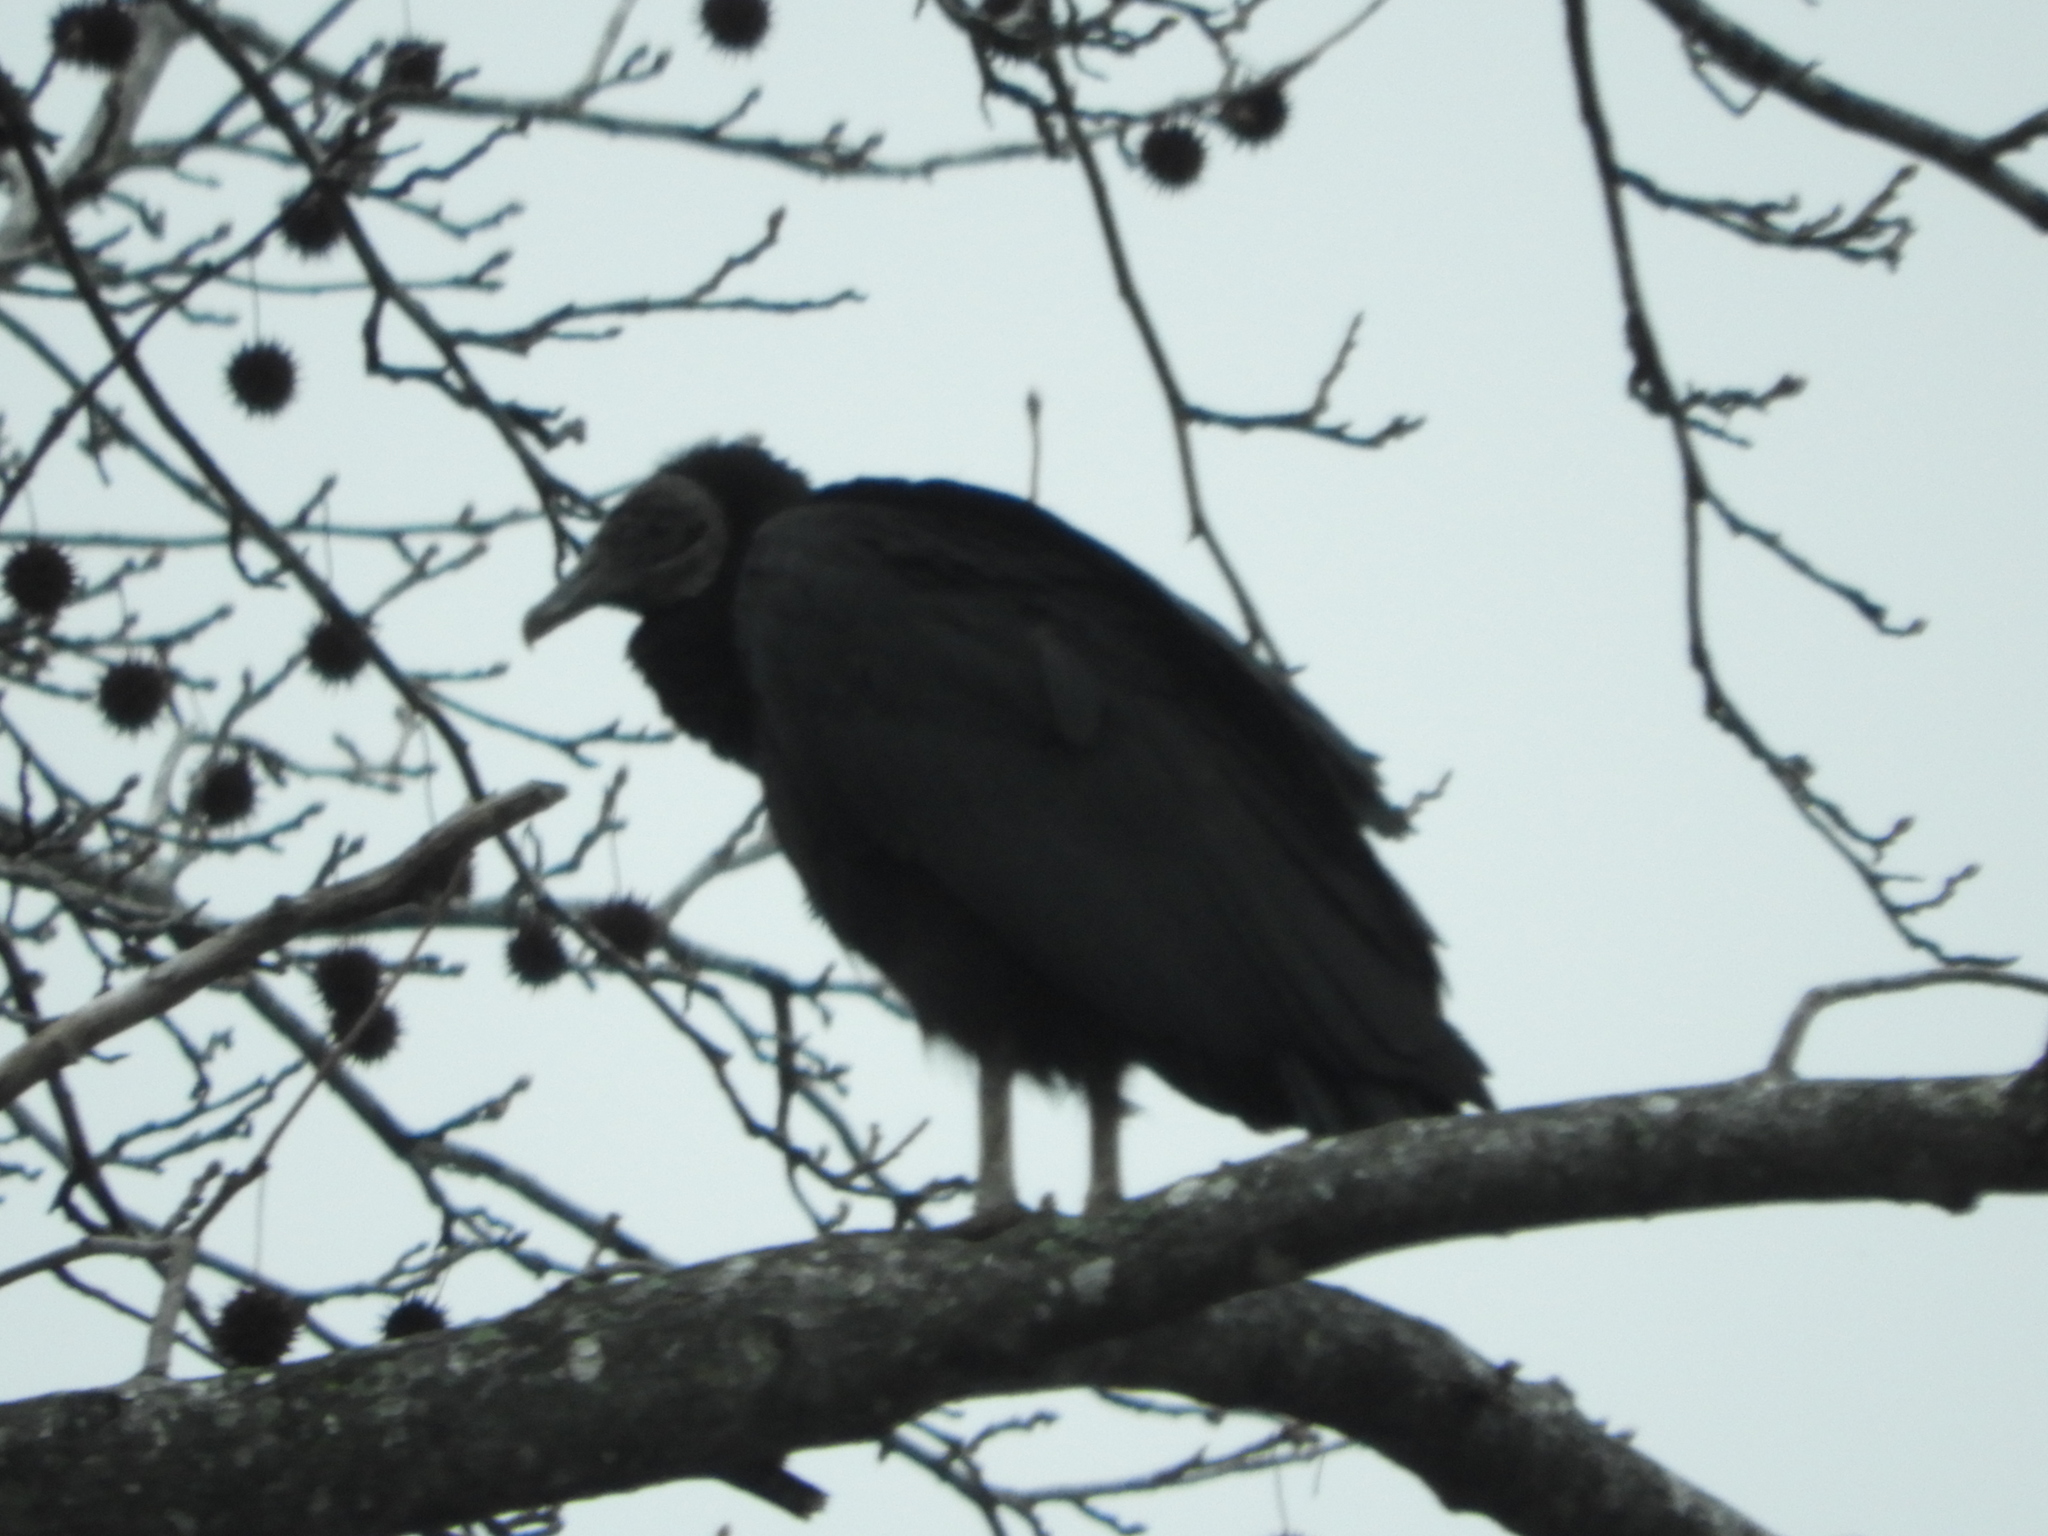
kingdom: Animalia
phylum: Chordata
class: Aves
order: Accipitriformes
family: Cathartidae
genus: Coragyps
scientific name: Coragyps atratus
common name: Black vulture
